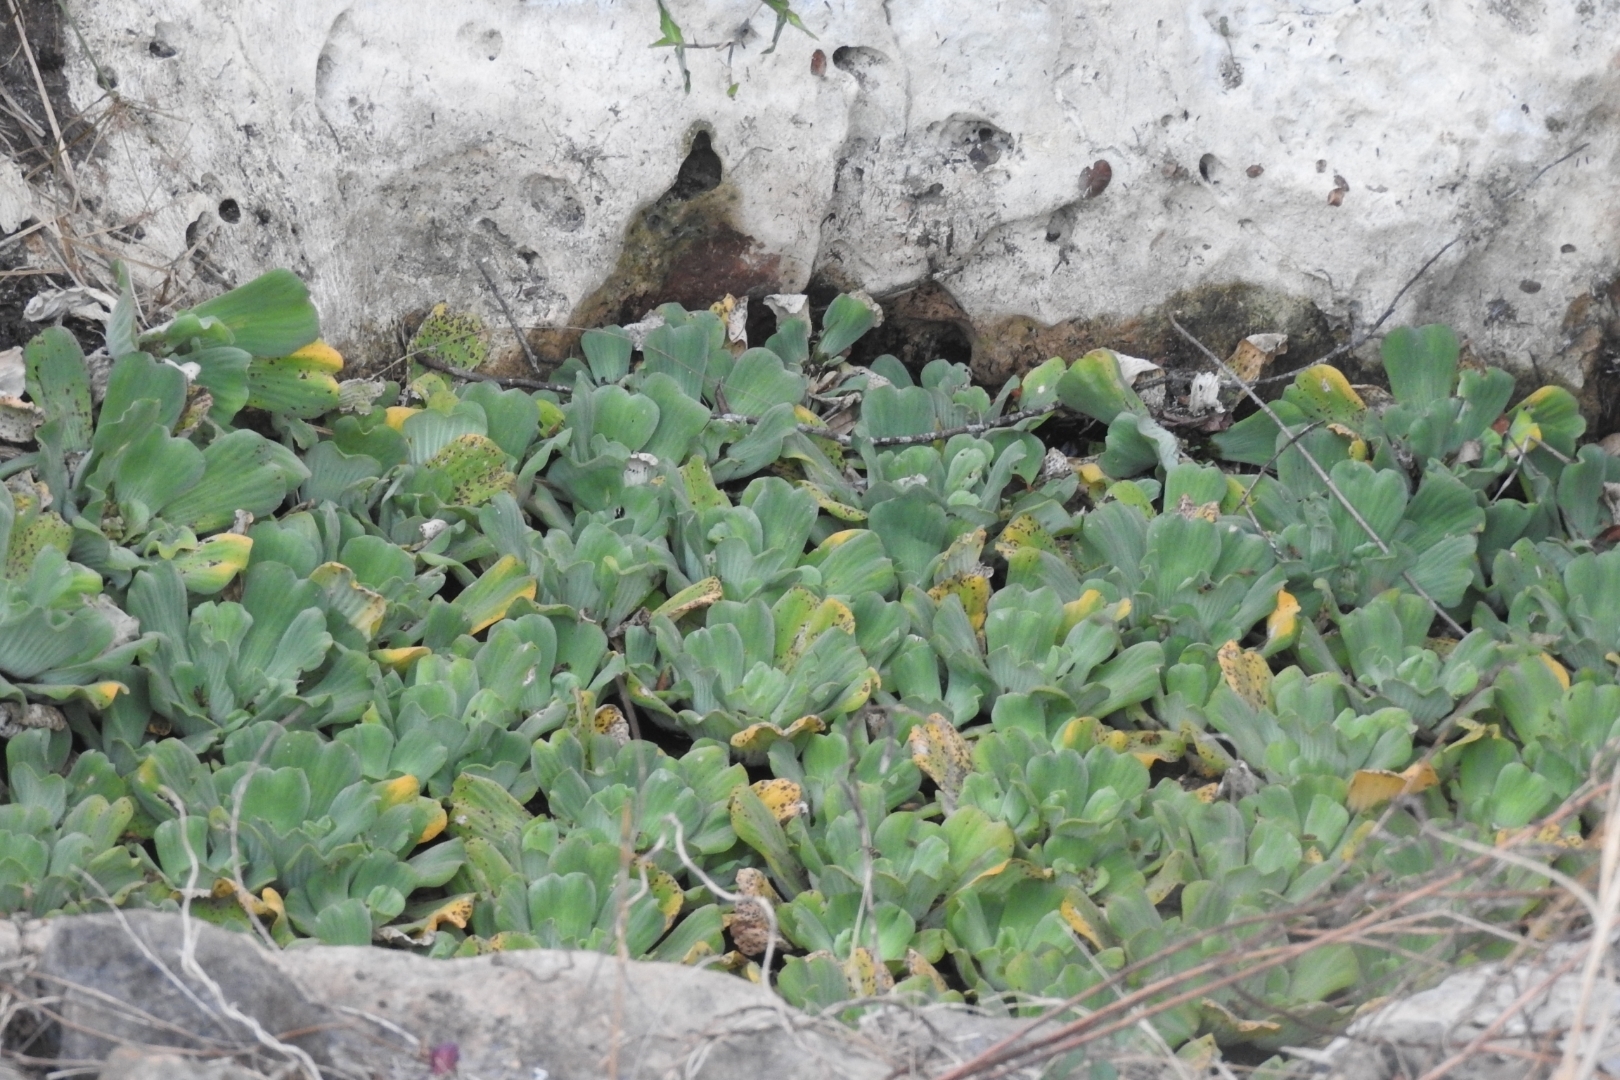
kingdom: Plantae
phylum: Tracheophyta
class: Liliopsida
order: Alismatales
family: Araceae
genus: Pistia
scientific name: Pistia stratiotes
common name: Water lettuce
